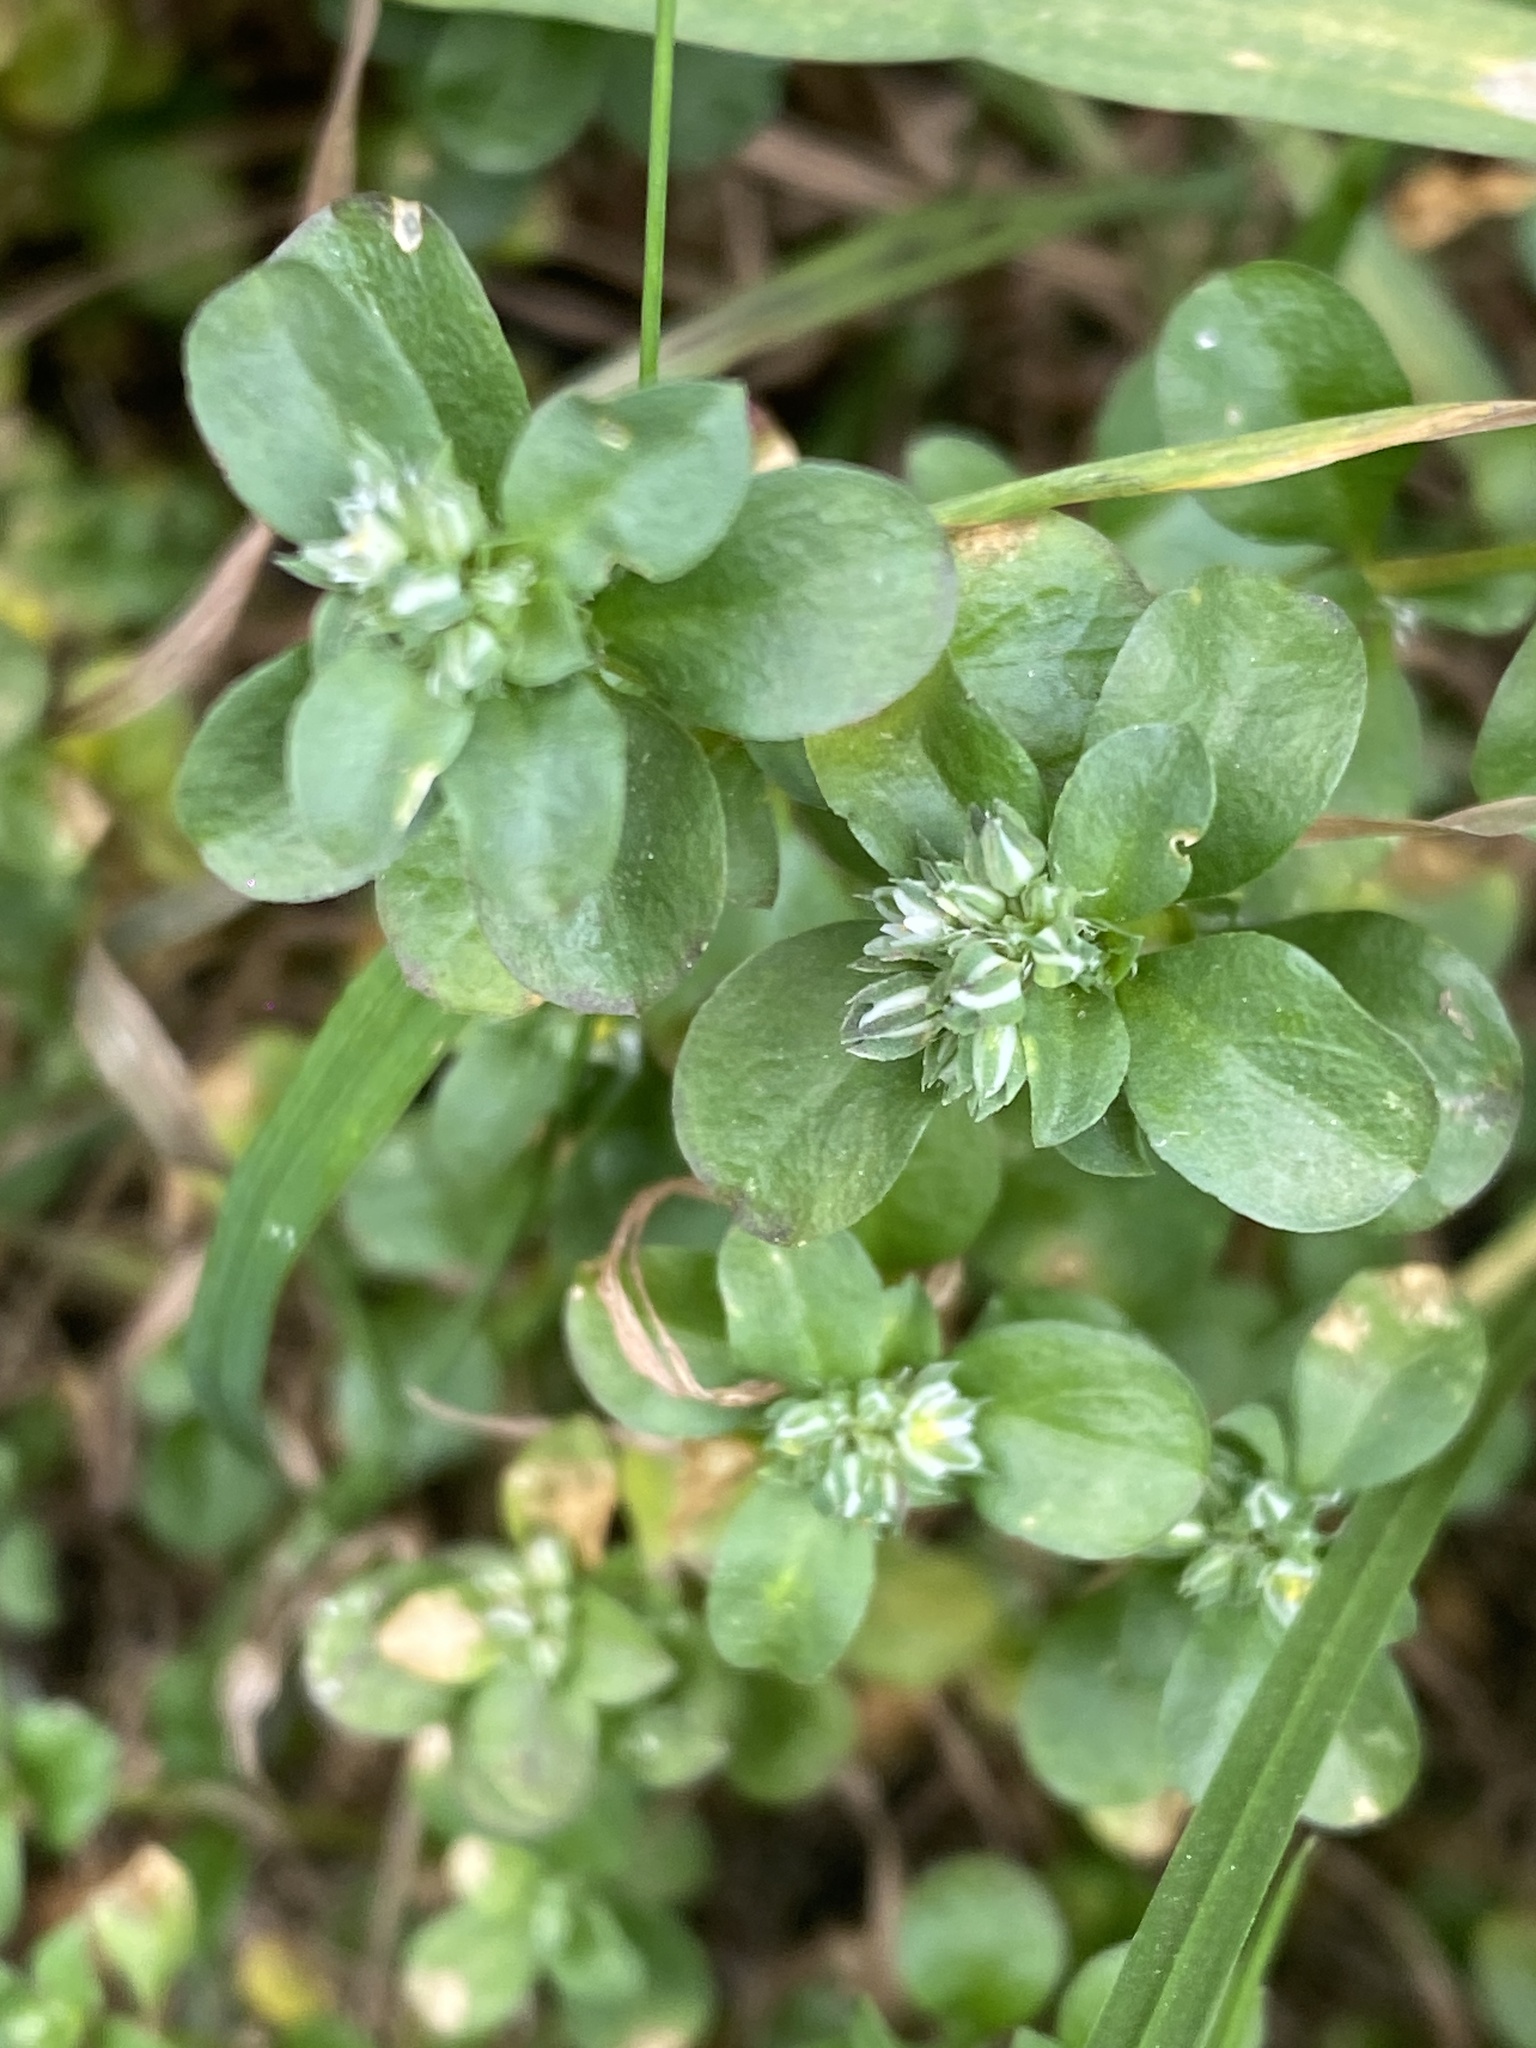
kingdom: Plantae
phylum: Tracheophyta
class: Magnoliopsida
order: Caryophyllales
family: Caryophyllaceae
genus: Polycarpon
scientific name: Polycarpon tetraphyllum
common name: Four-leaved all-seed
